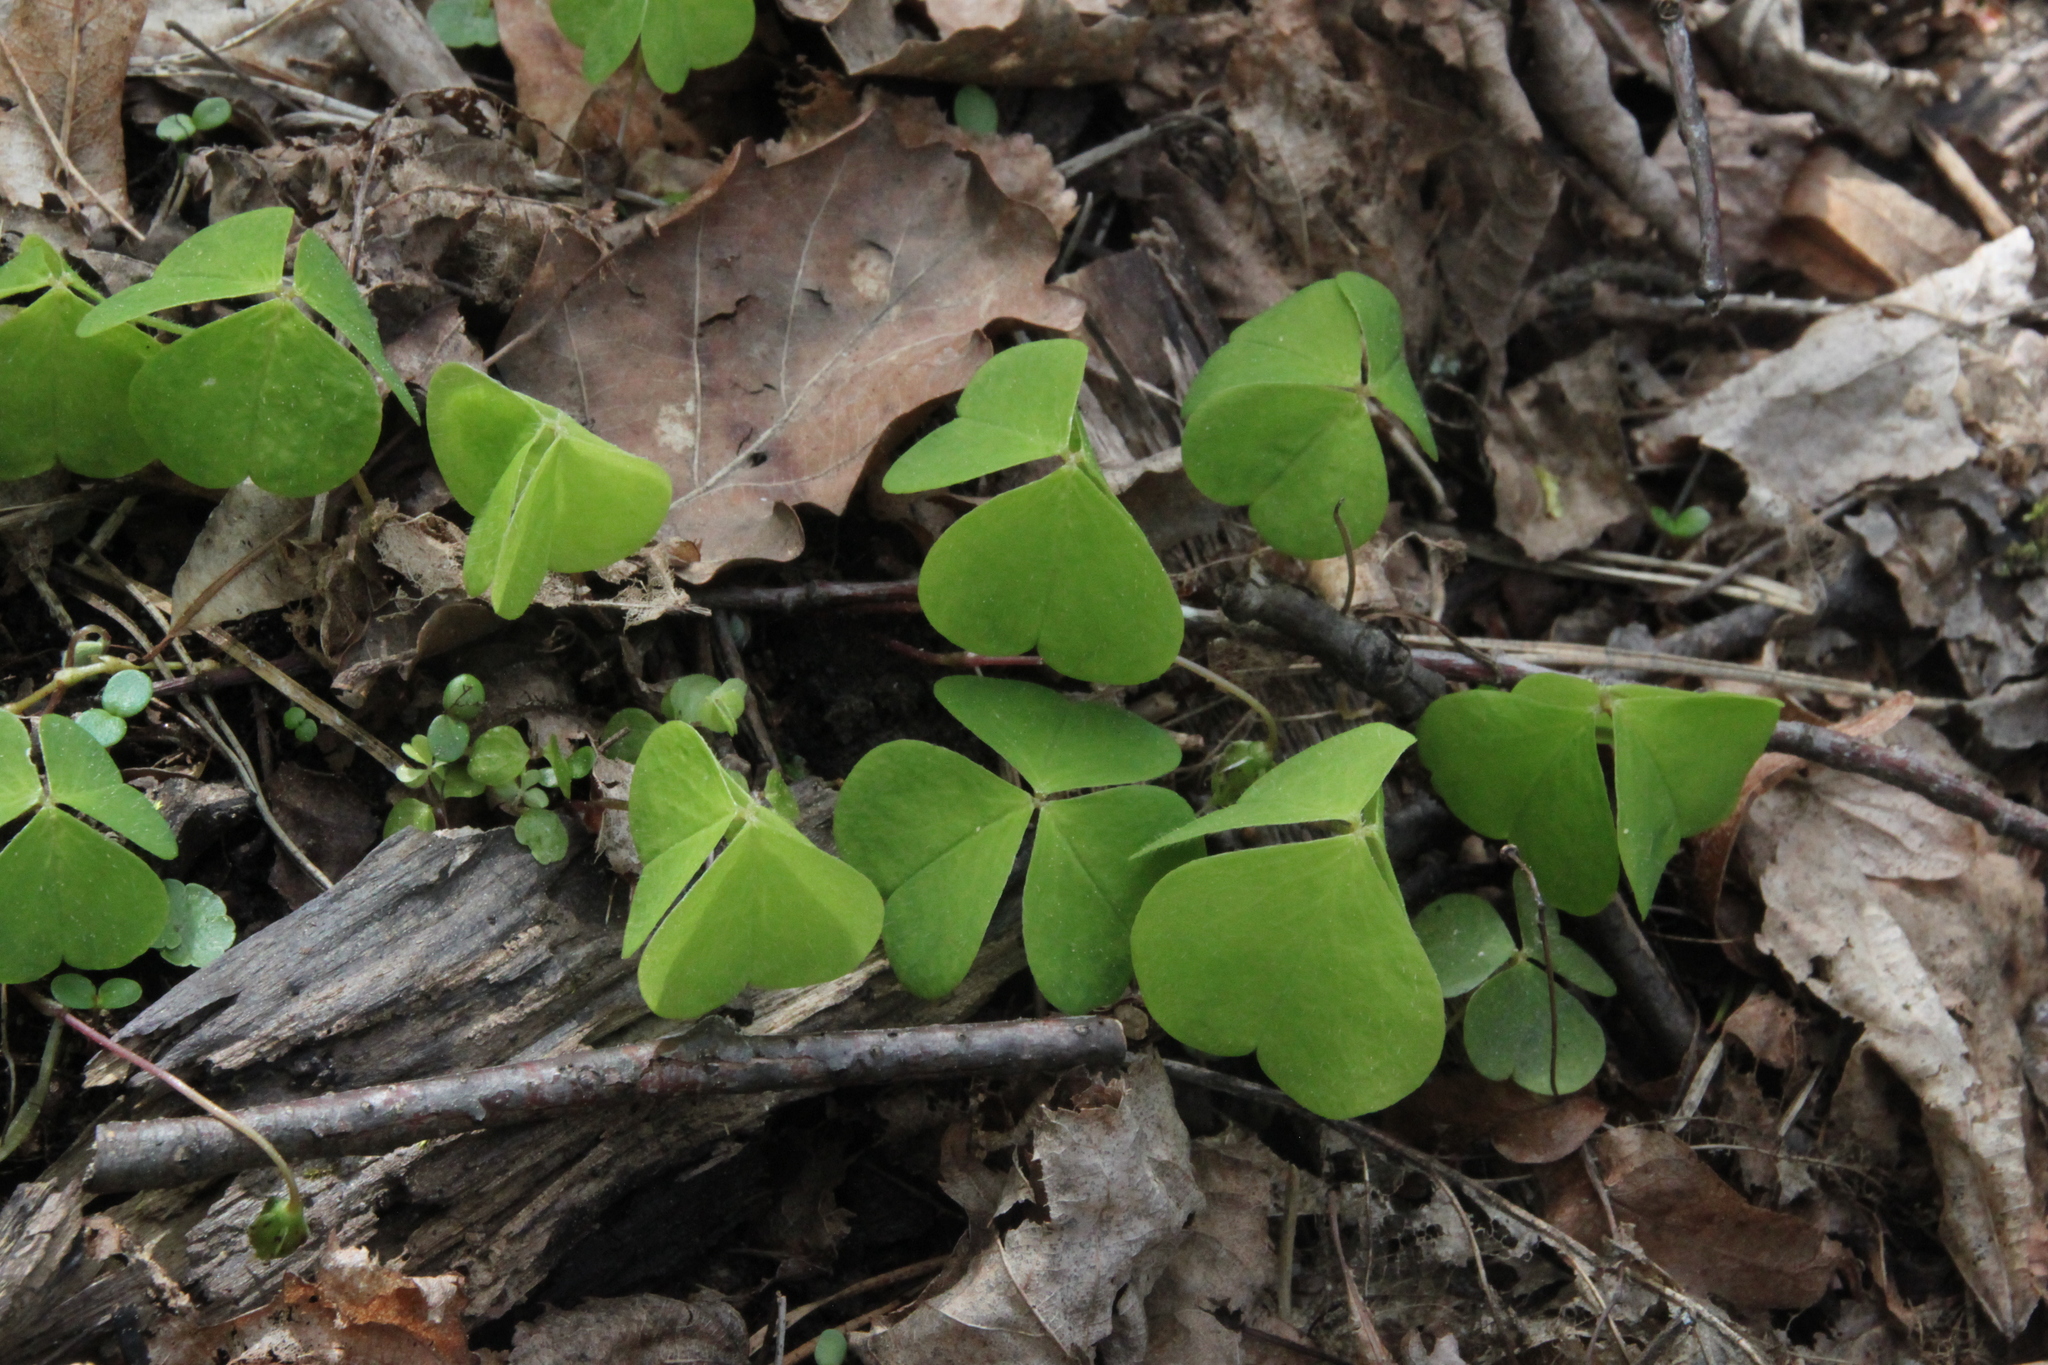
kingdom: Plantae
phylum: Tracheophyta
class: Magnoliopsida
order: Oxalidales
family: Oxalidaceae
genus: Oxalis
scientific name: Oxalis acetosella
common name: Wood-sorrel
